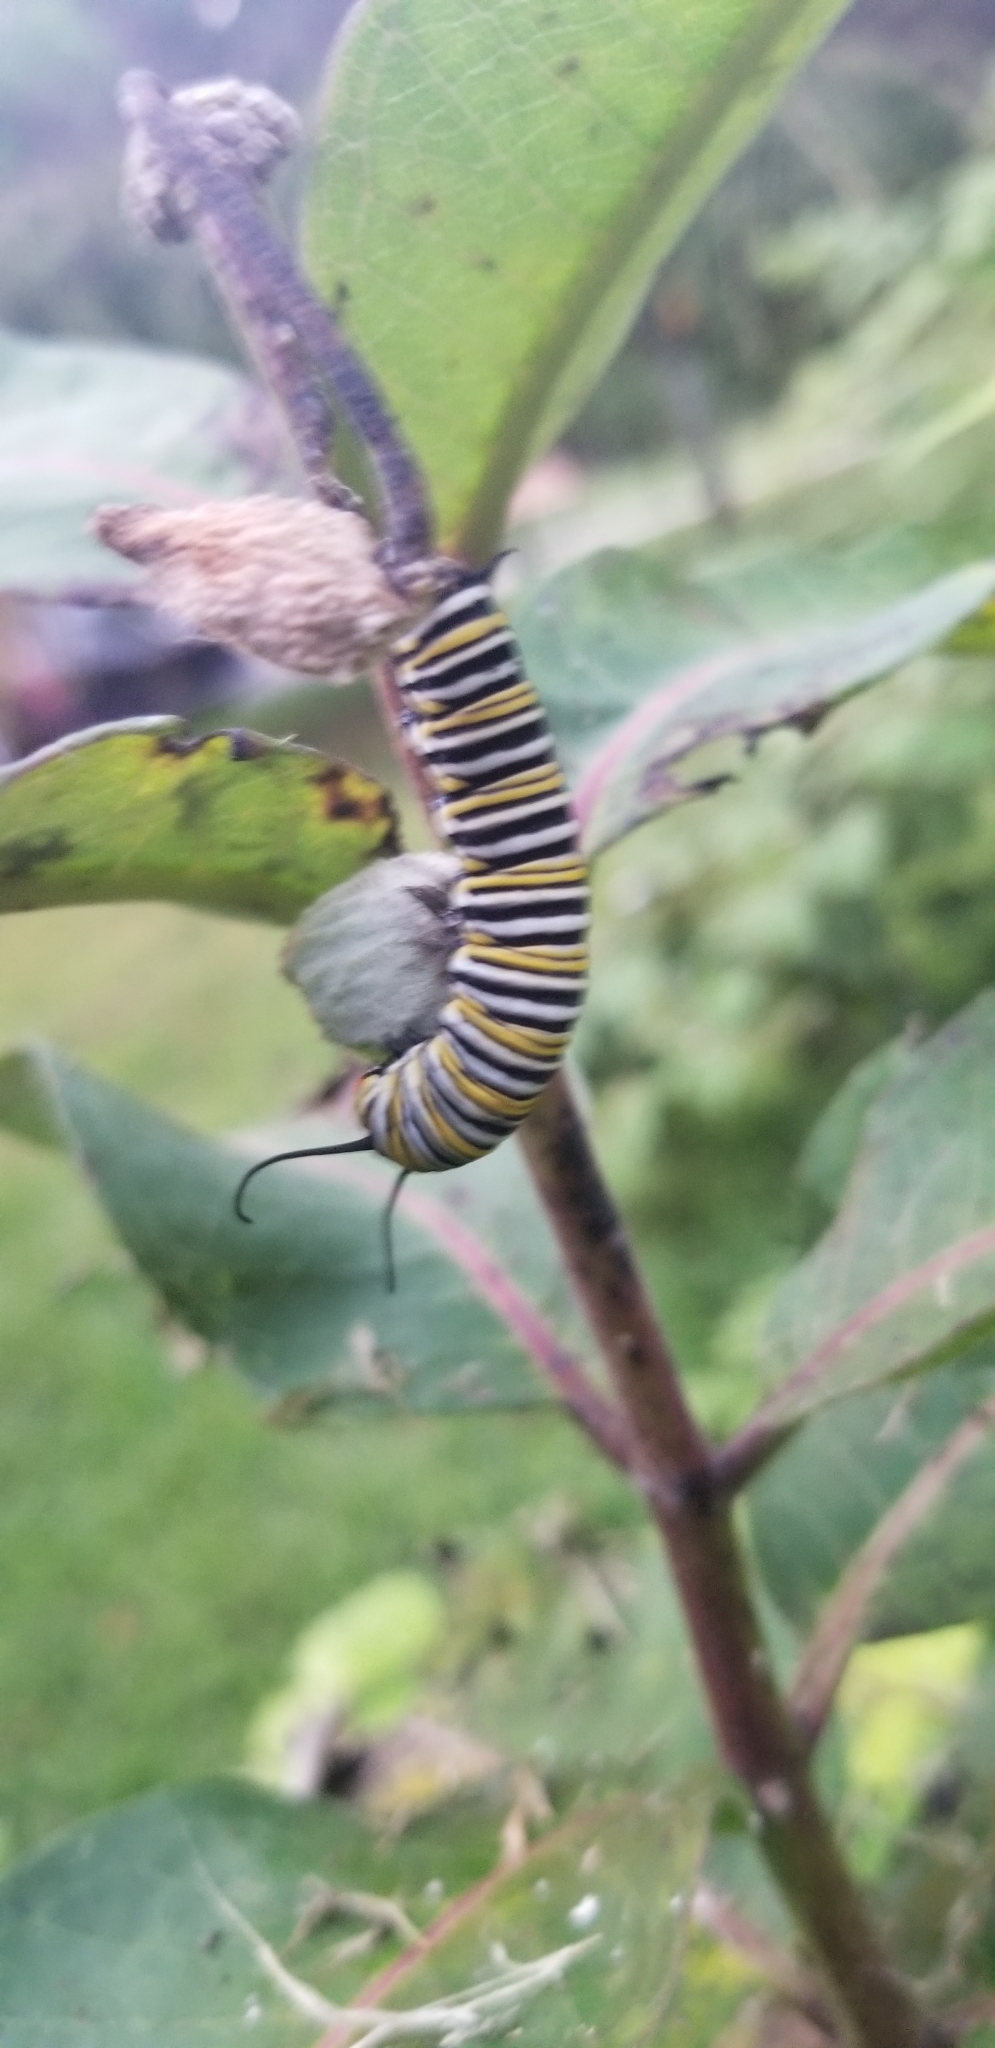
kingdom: Animalia
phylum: Arthropoda
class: Insecta
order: Lepidoptera
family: Nymphalidae
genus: Danaus
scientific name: Danaus plexippus
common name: Monarch
